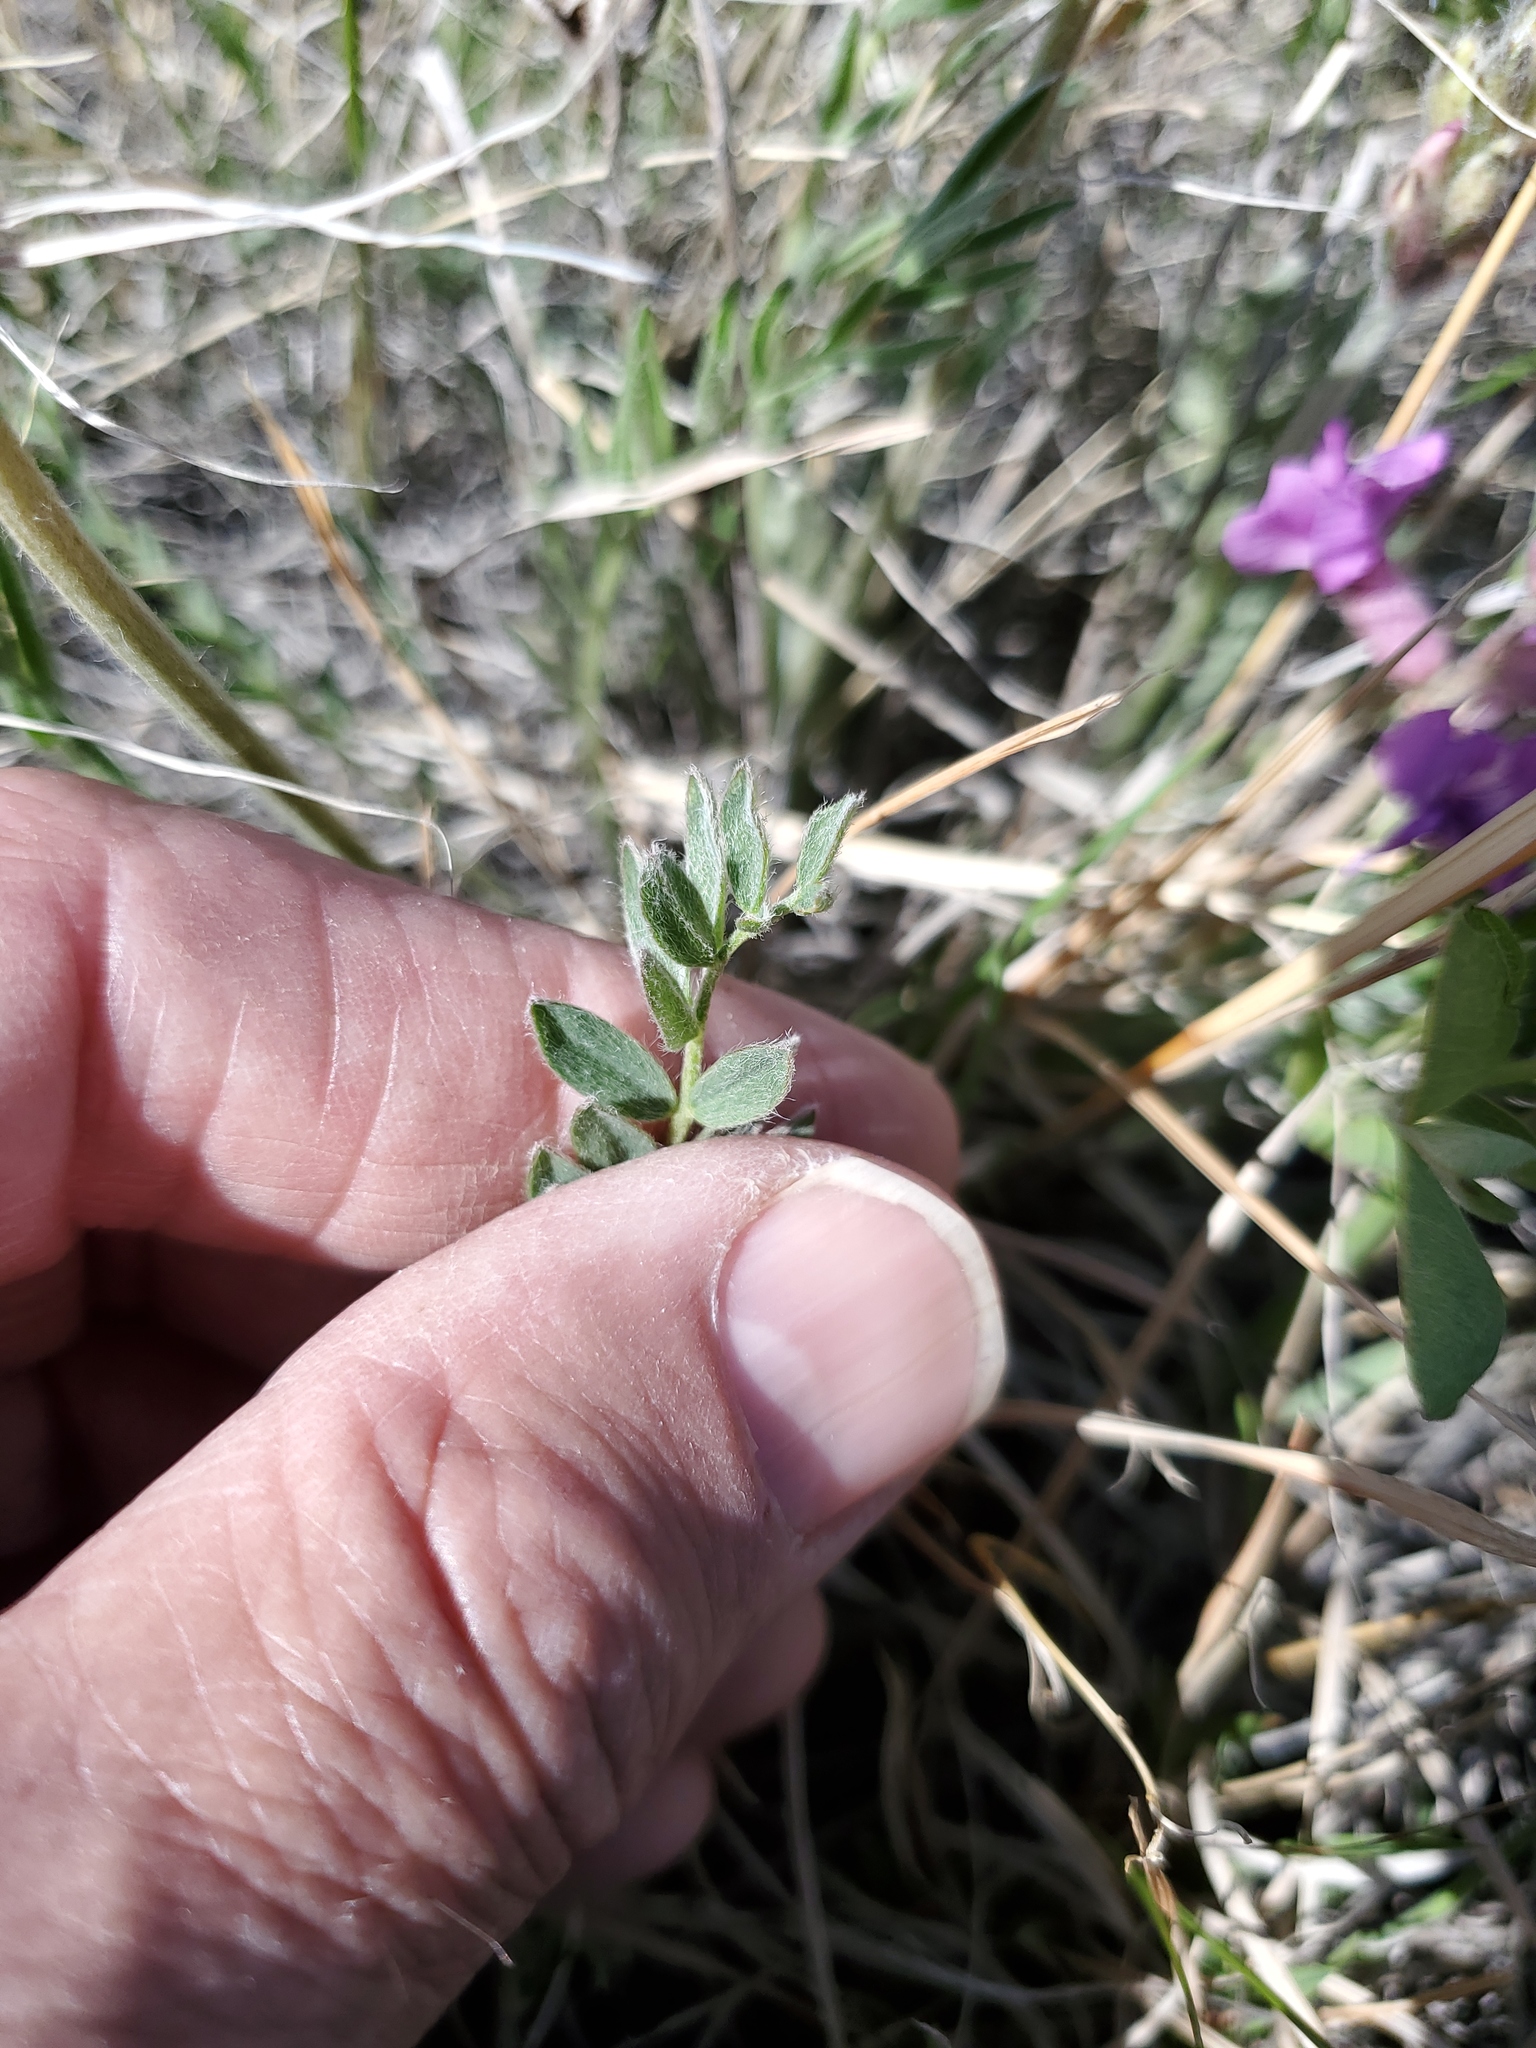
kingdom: Plantae
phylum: Tracheophyta
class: Magnoliopsida
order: Fabales
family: Fabaceae
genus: Oxytropis
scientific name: Oxytropis lambertii
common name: Purple locoweed
